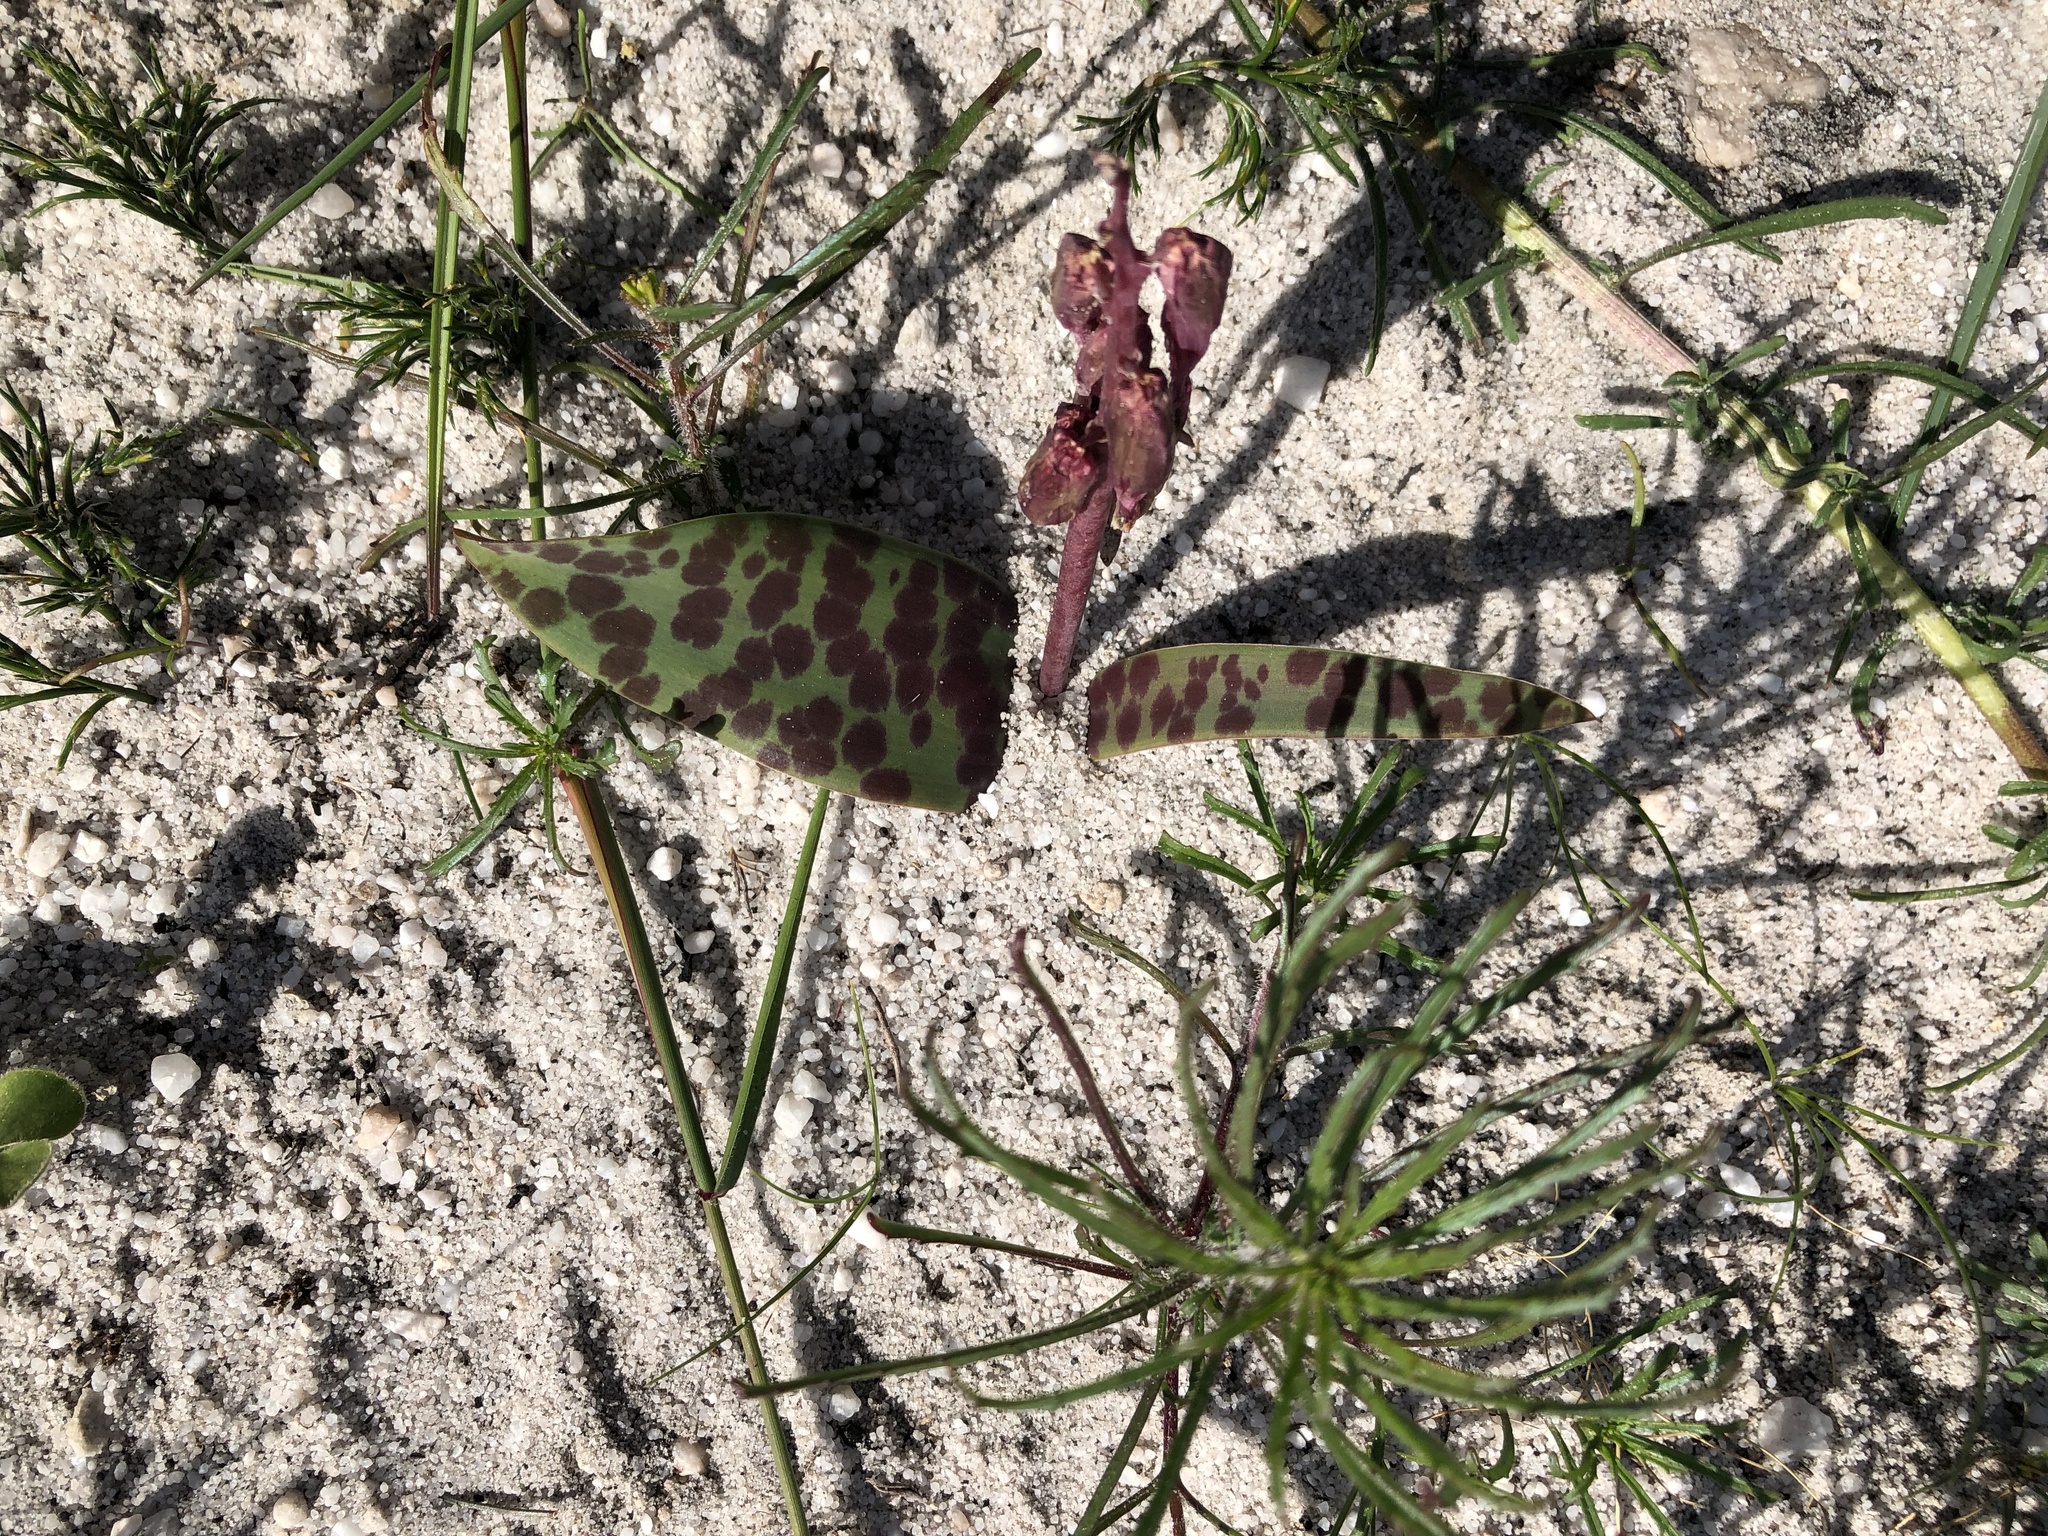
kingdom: Plantae
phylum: Tracheophyta
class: Liliopsida
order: Asparagales
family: Asparagaceae
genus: Lachenalia
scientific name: Lachenalia punctata
